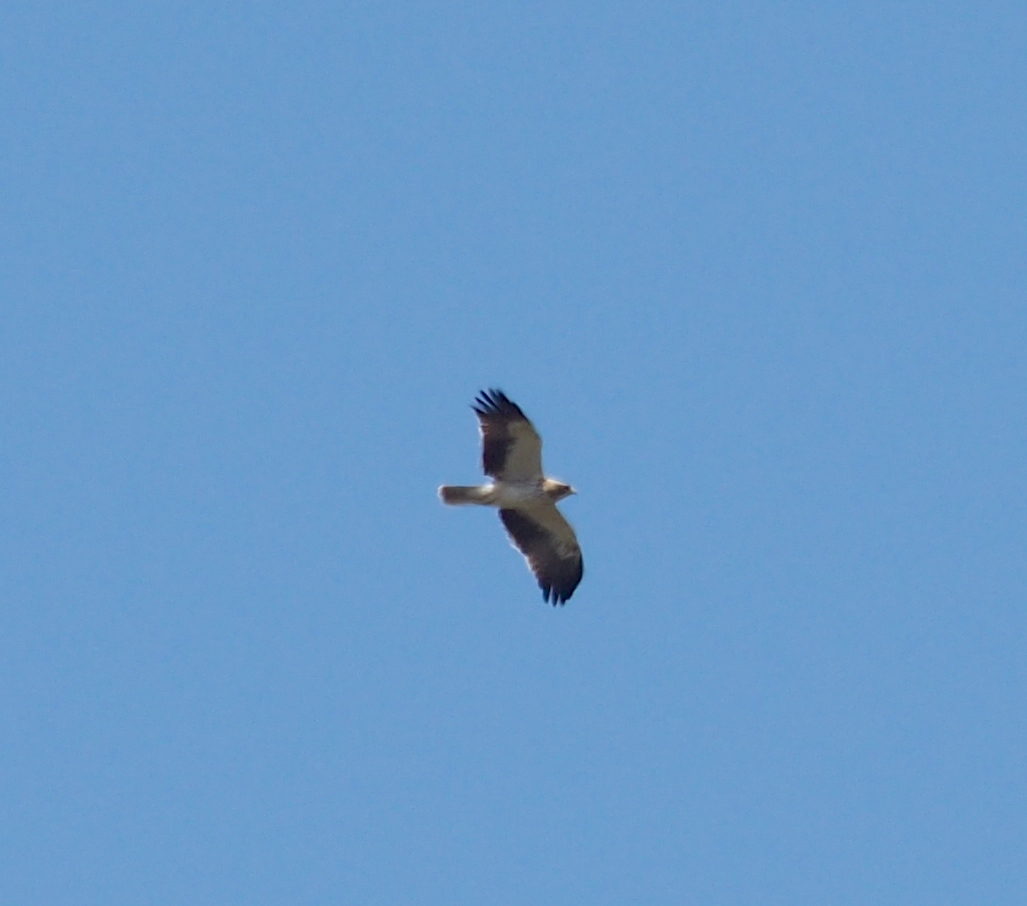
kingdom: Animalia
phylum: Chordata
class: Aves
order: Accipitriformes
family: Accipitridae
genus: Hieraaetus
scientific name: Hieraaetus pennatus
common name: Booted eagle
